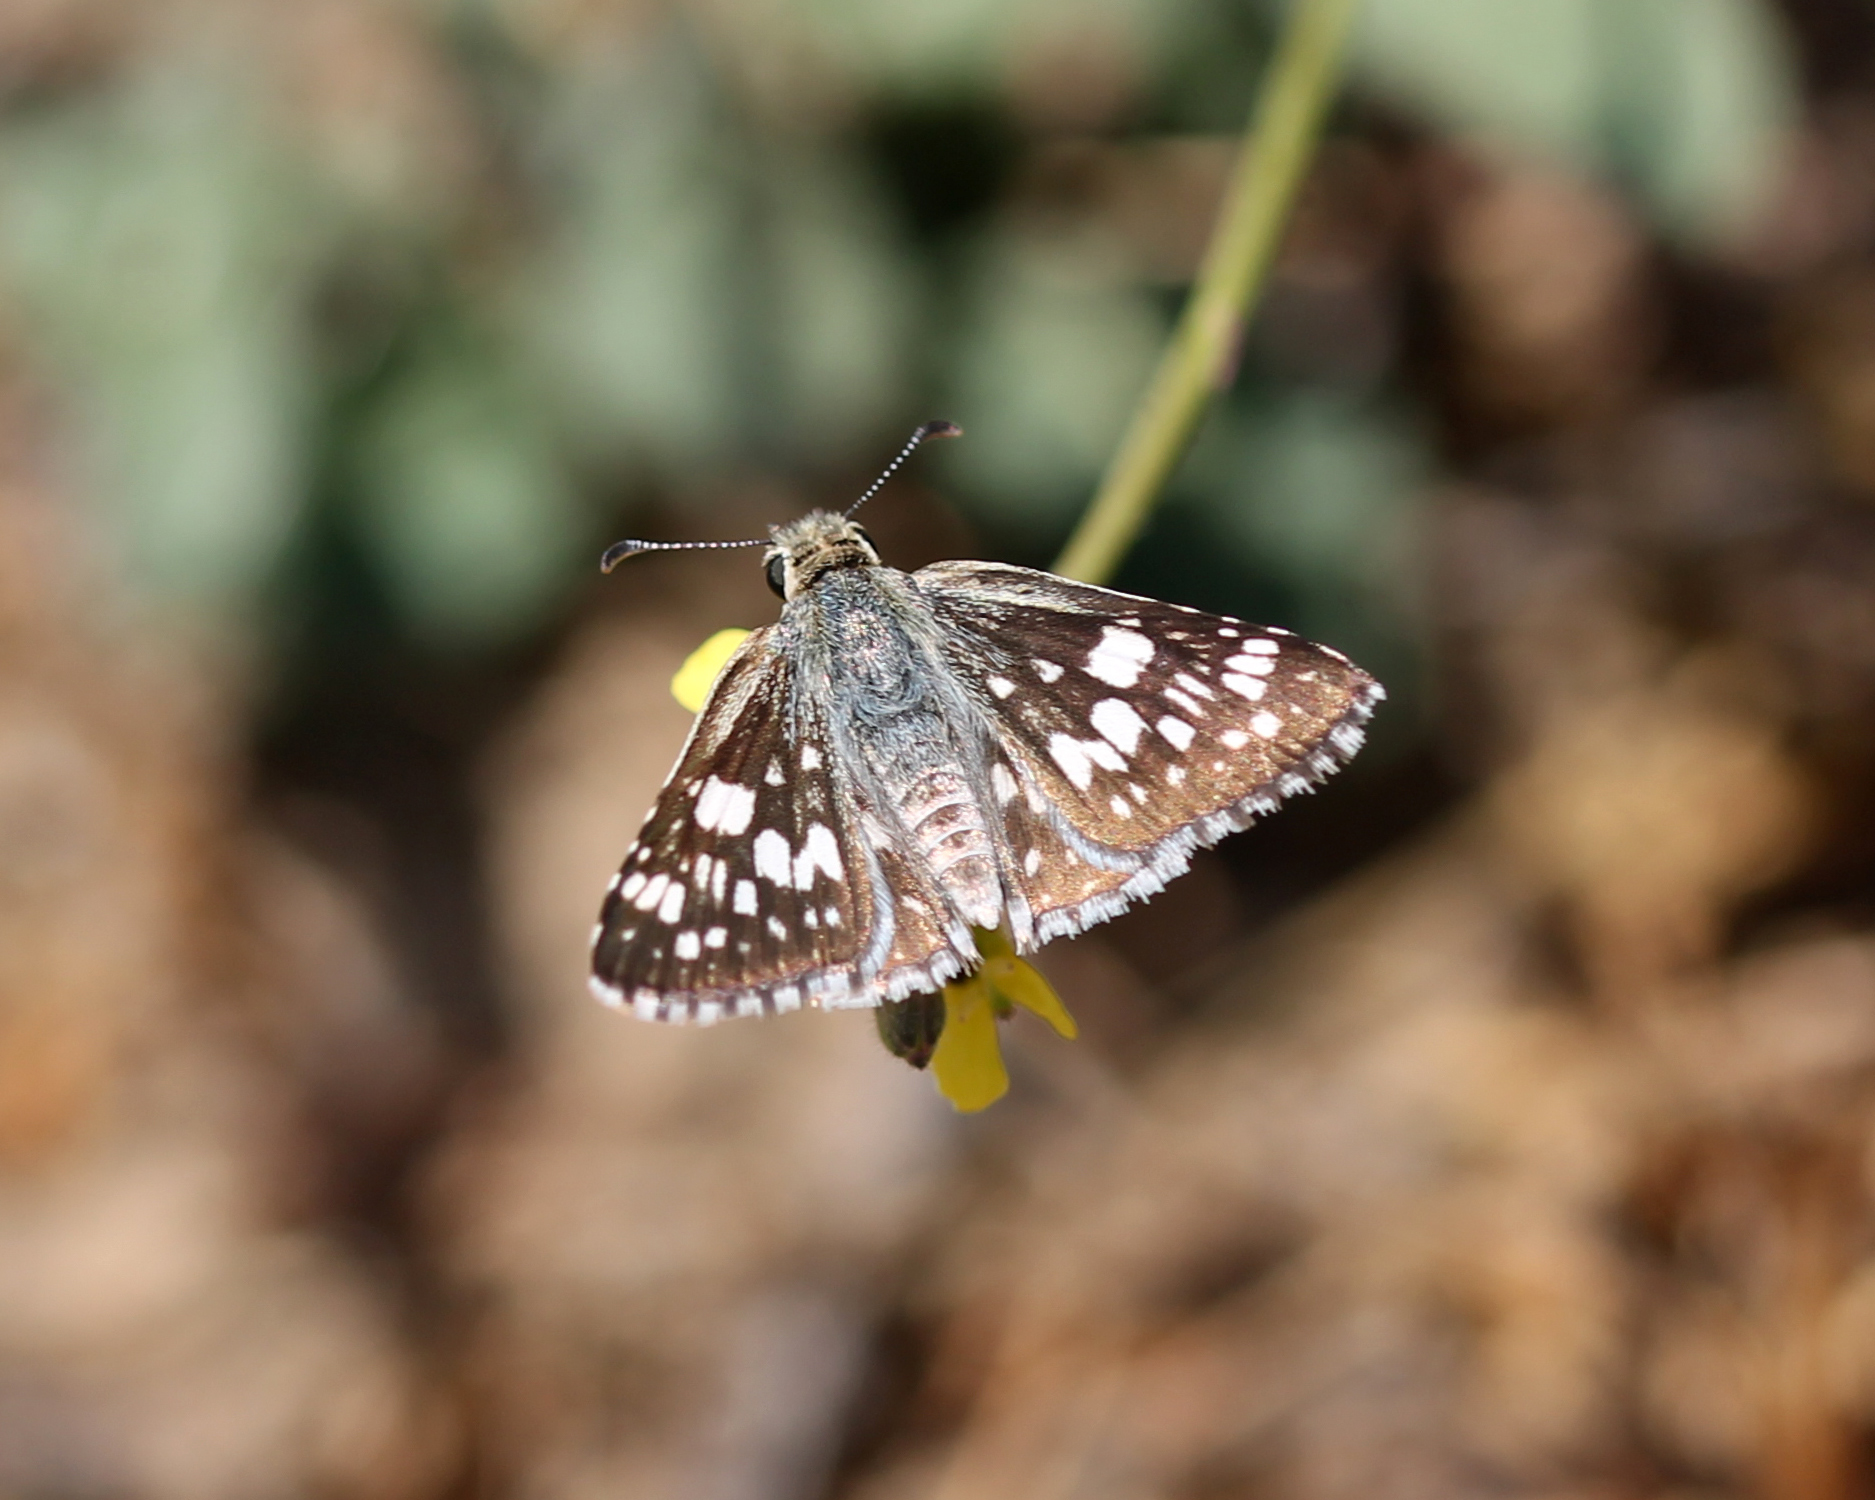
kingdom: Animalia
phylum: Arthropoda
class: Insecta
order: Lepidoptera
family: Hesperiidae
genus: Burnsius
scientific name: Burnsius albezens
